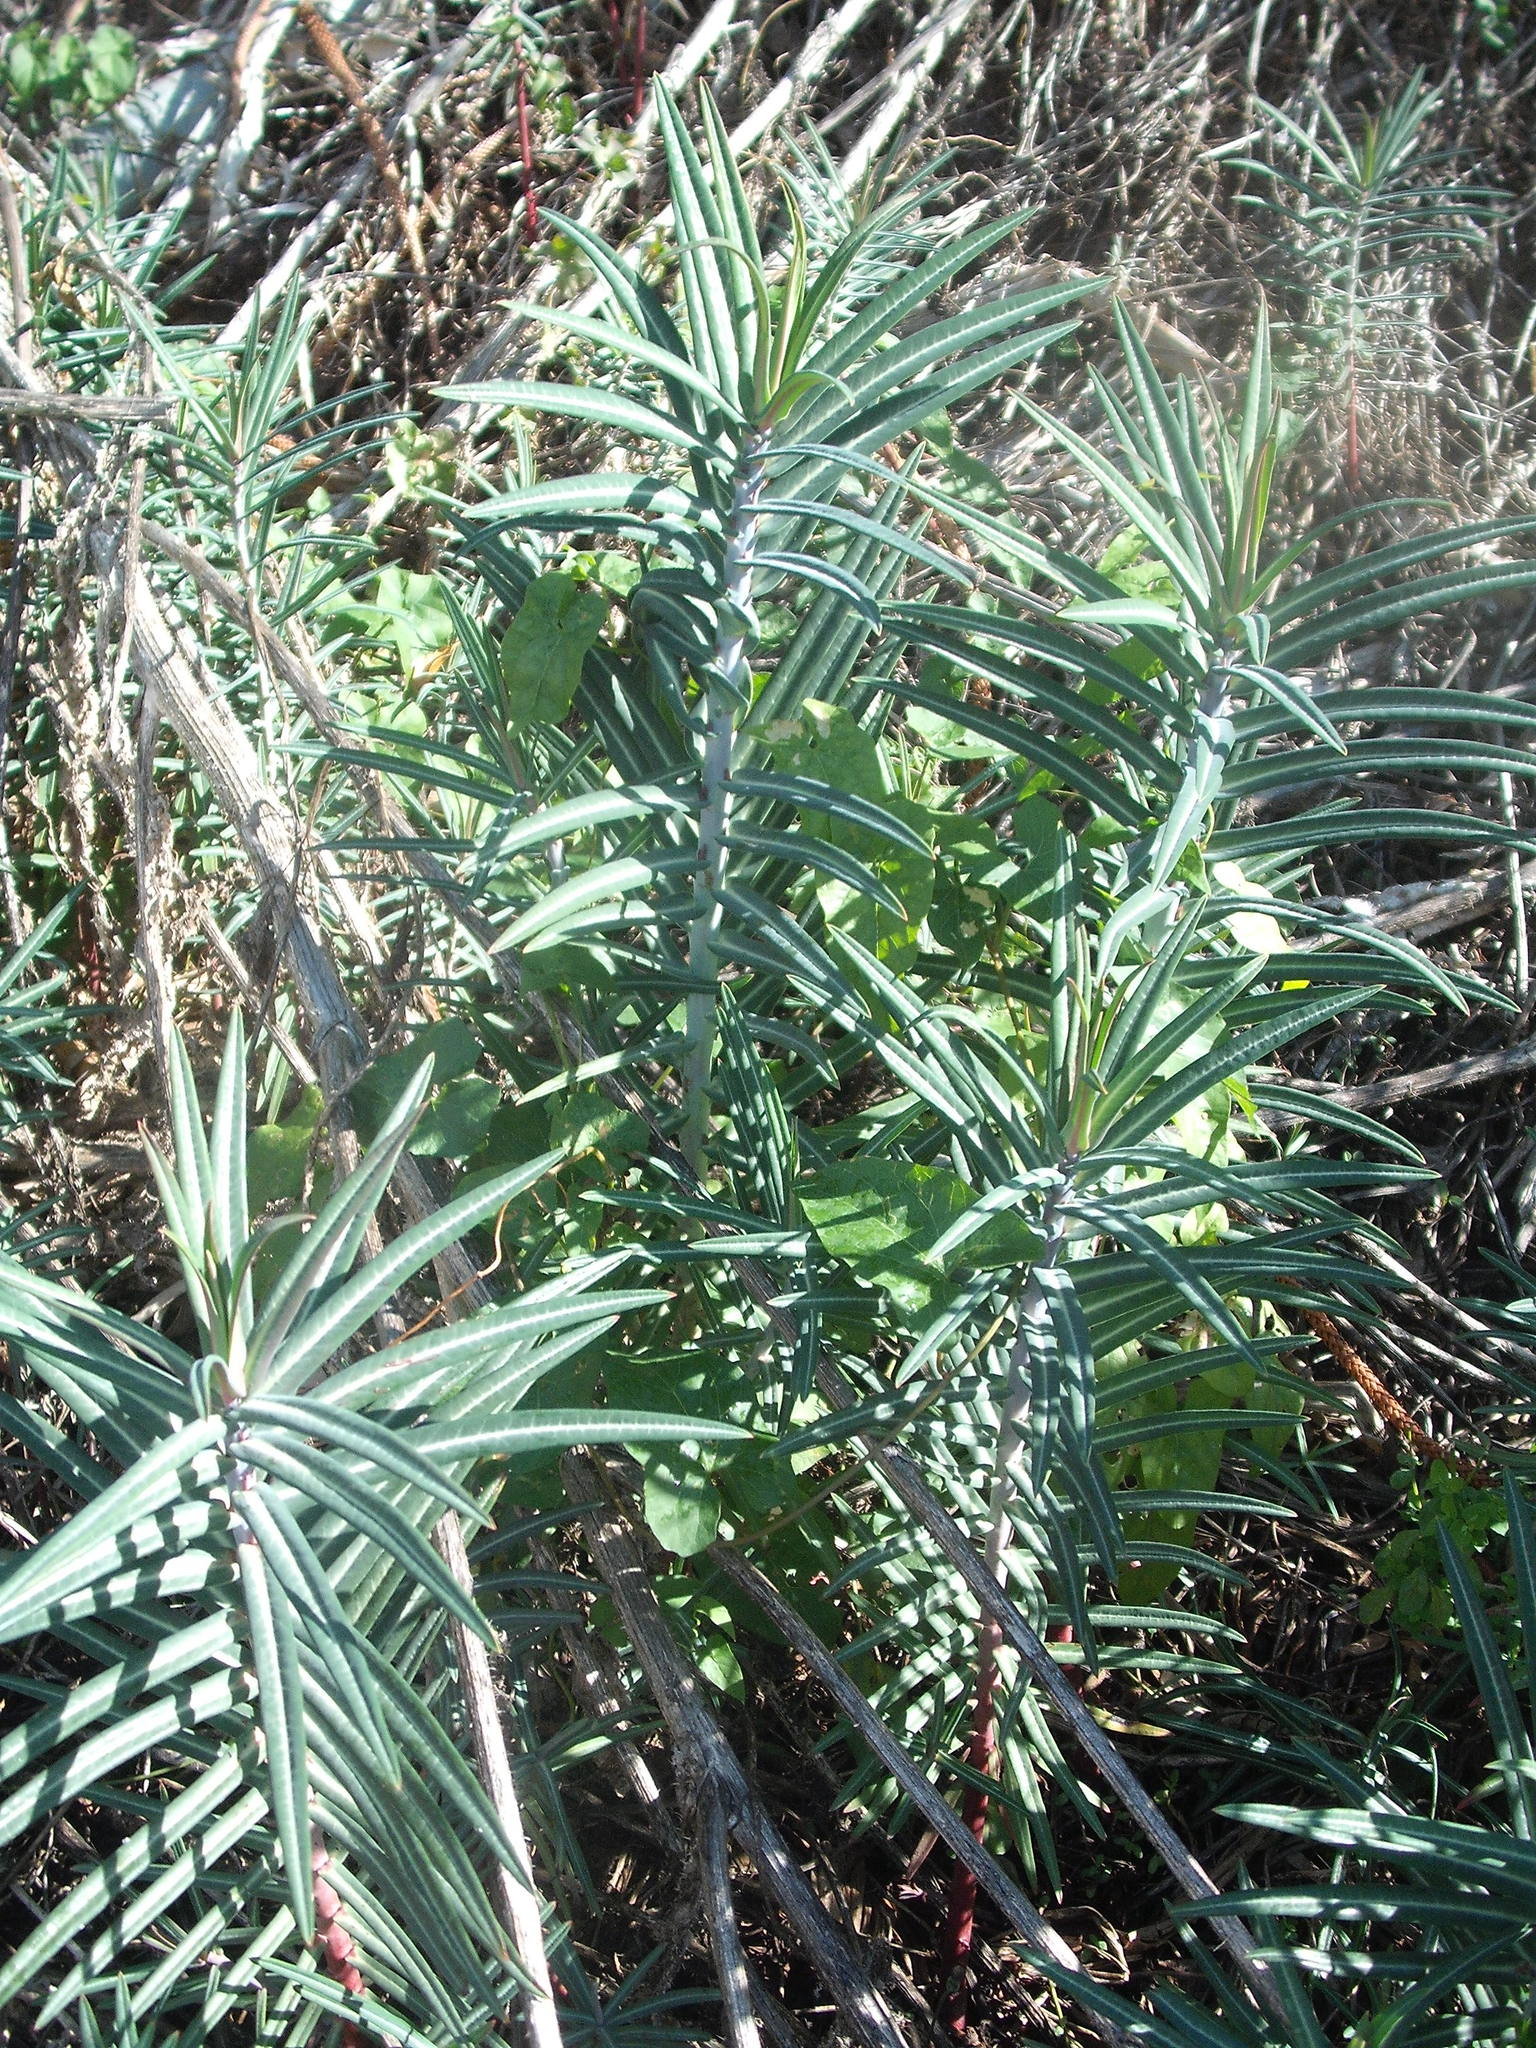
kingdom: Plantae
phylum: Tracheophyta
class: Magnoliopsida
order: Malpighiales
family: Euphorbiaceae
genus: Euphorbia
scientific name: Euphorbia lathyris
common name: Caper spurge
